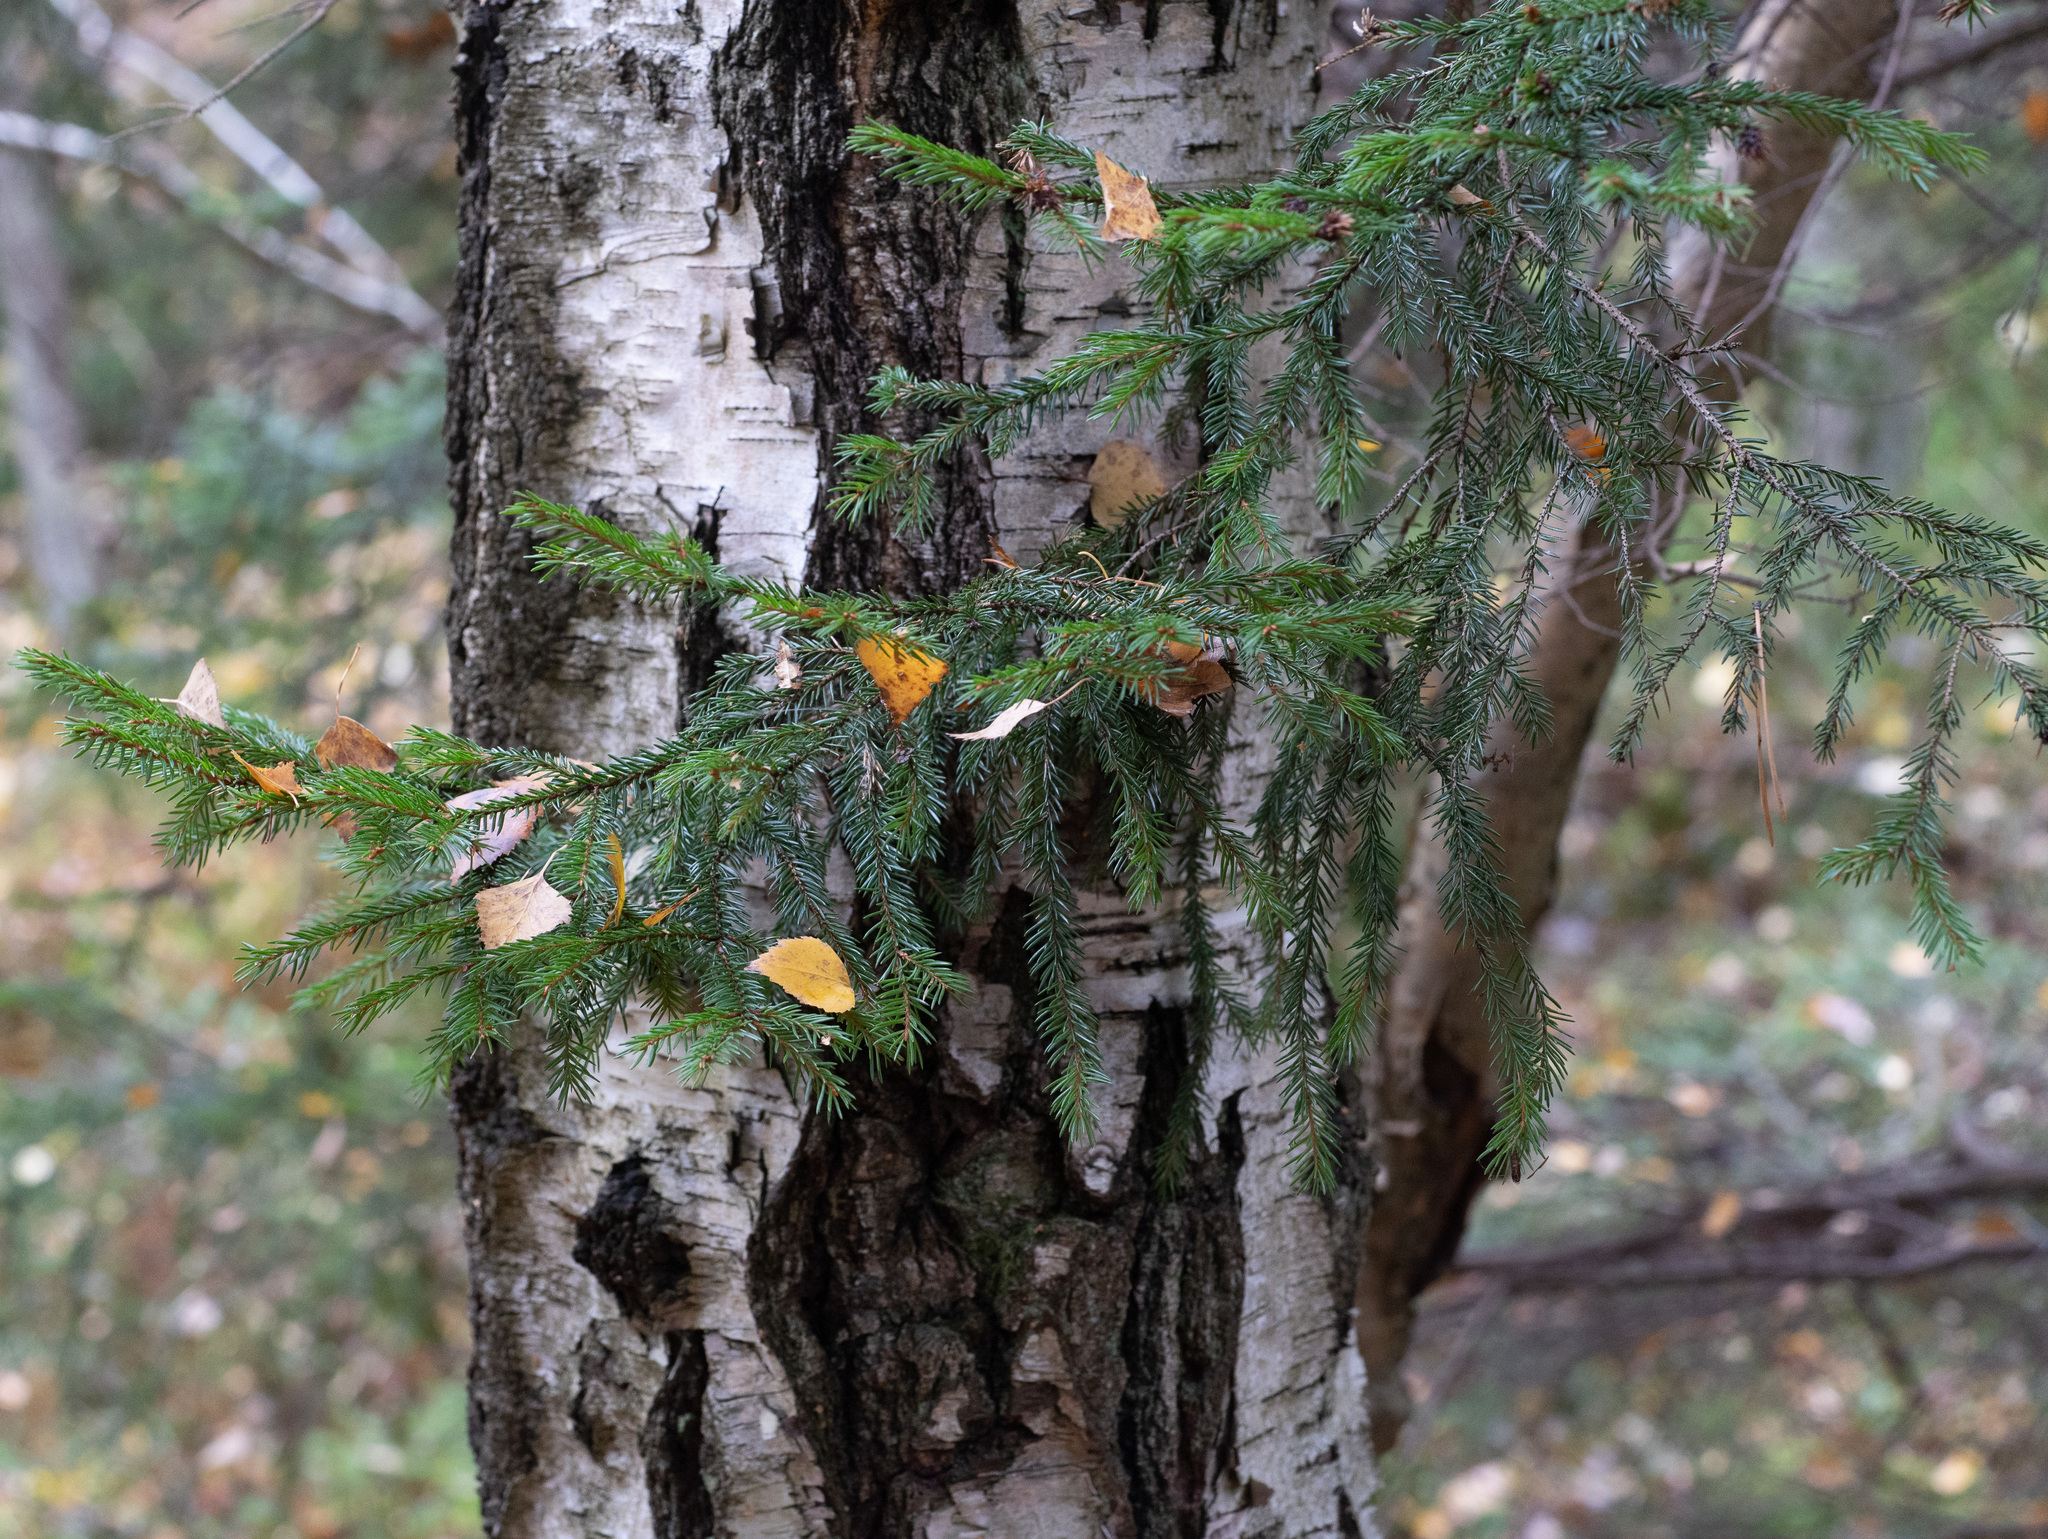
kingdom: Plantae
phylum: Tracheophyta
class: Pinopsida
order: Pinales
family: Pinaceae
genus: Picea
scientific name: Picea abies
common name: Norway spruce
